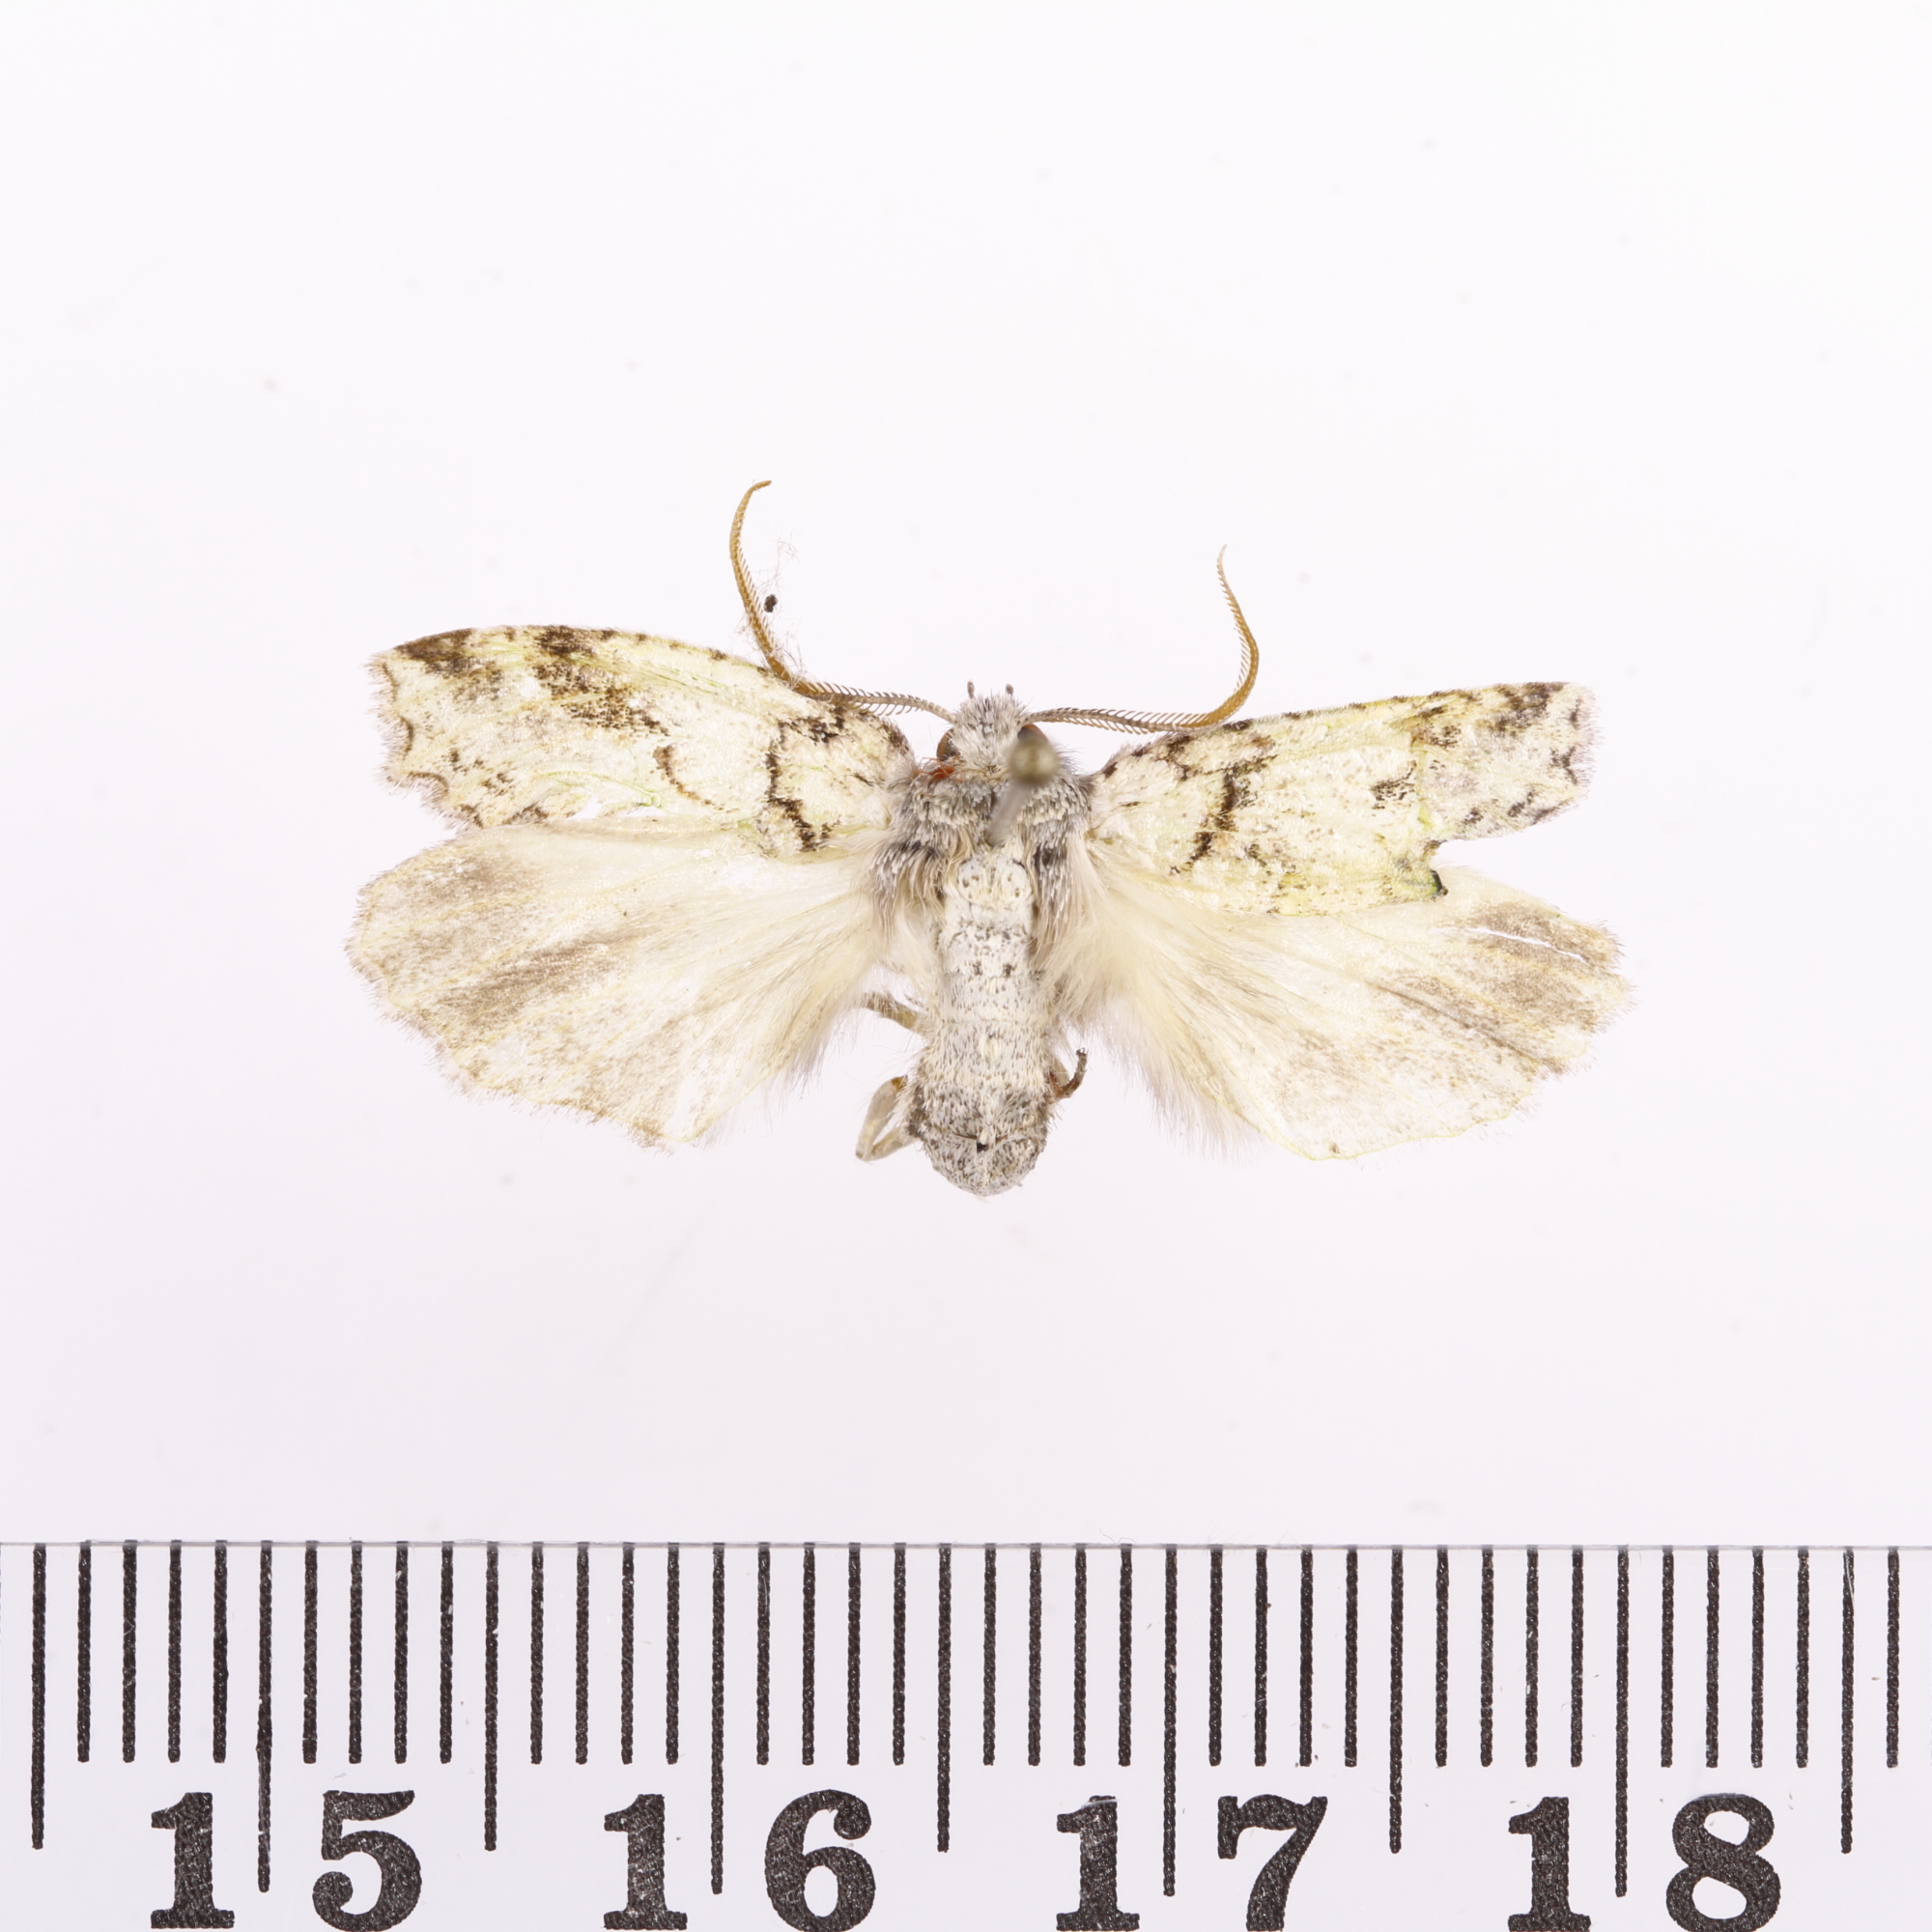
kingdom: Animalia
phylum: Arthropoda
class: Insecta
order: Lepidoptera
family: Geometridae
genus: Declana
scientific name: Declana floccosa
